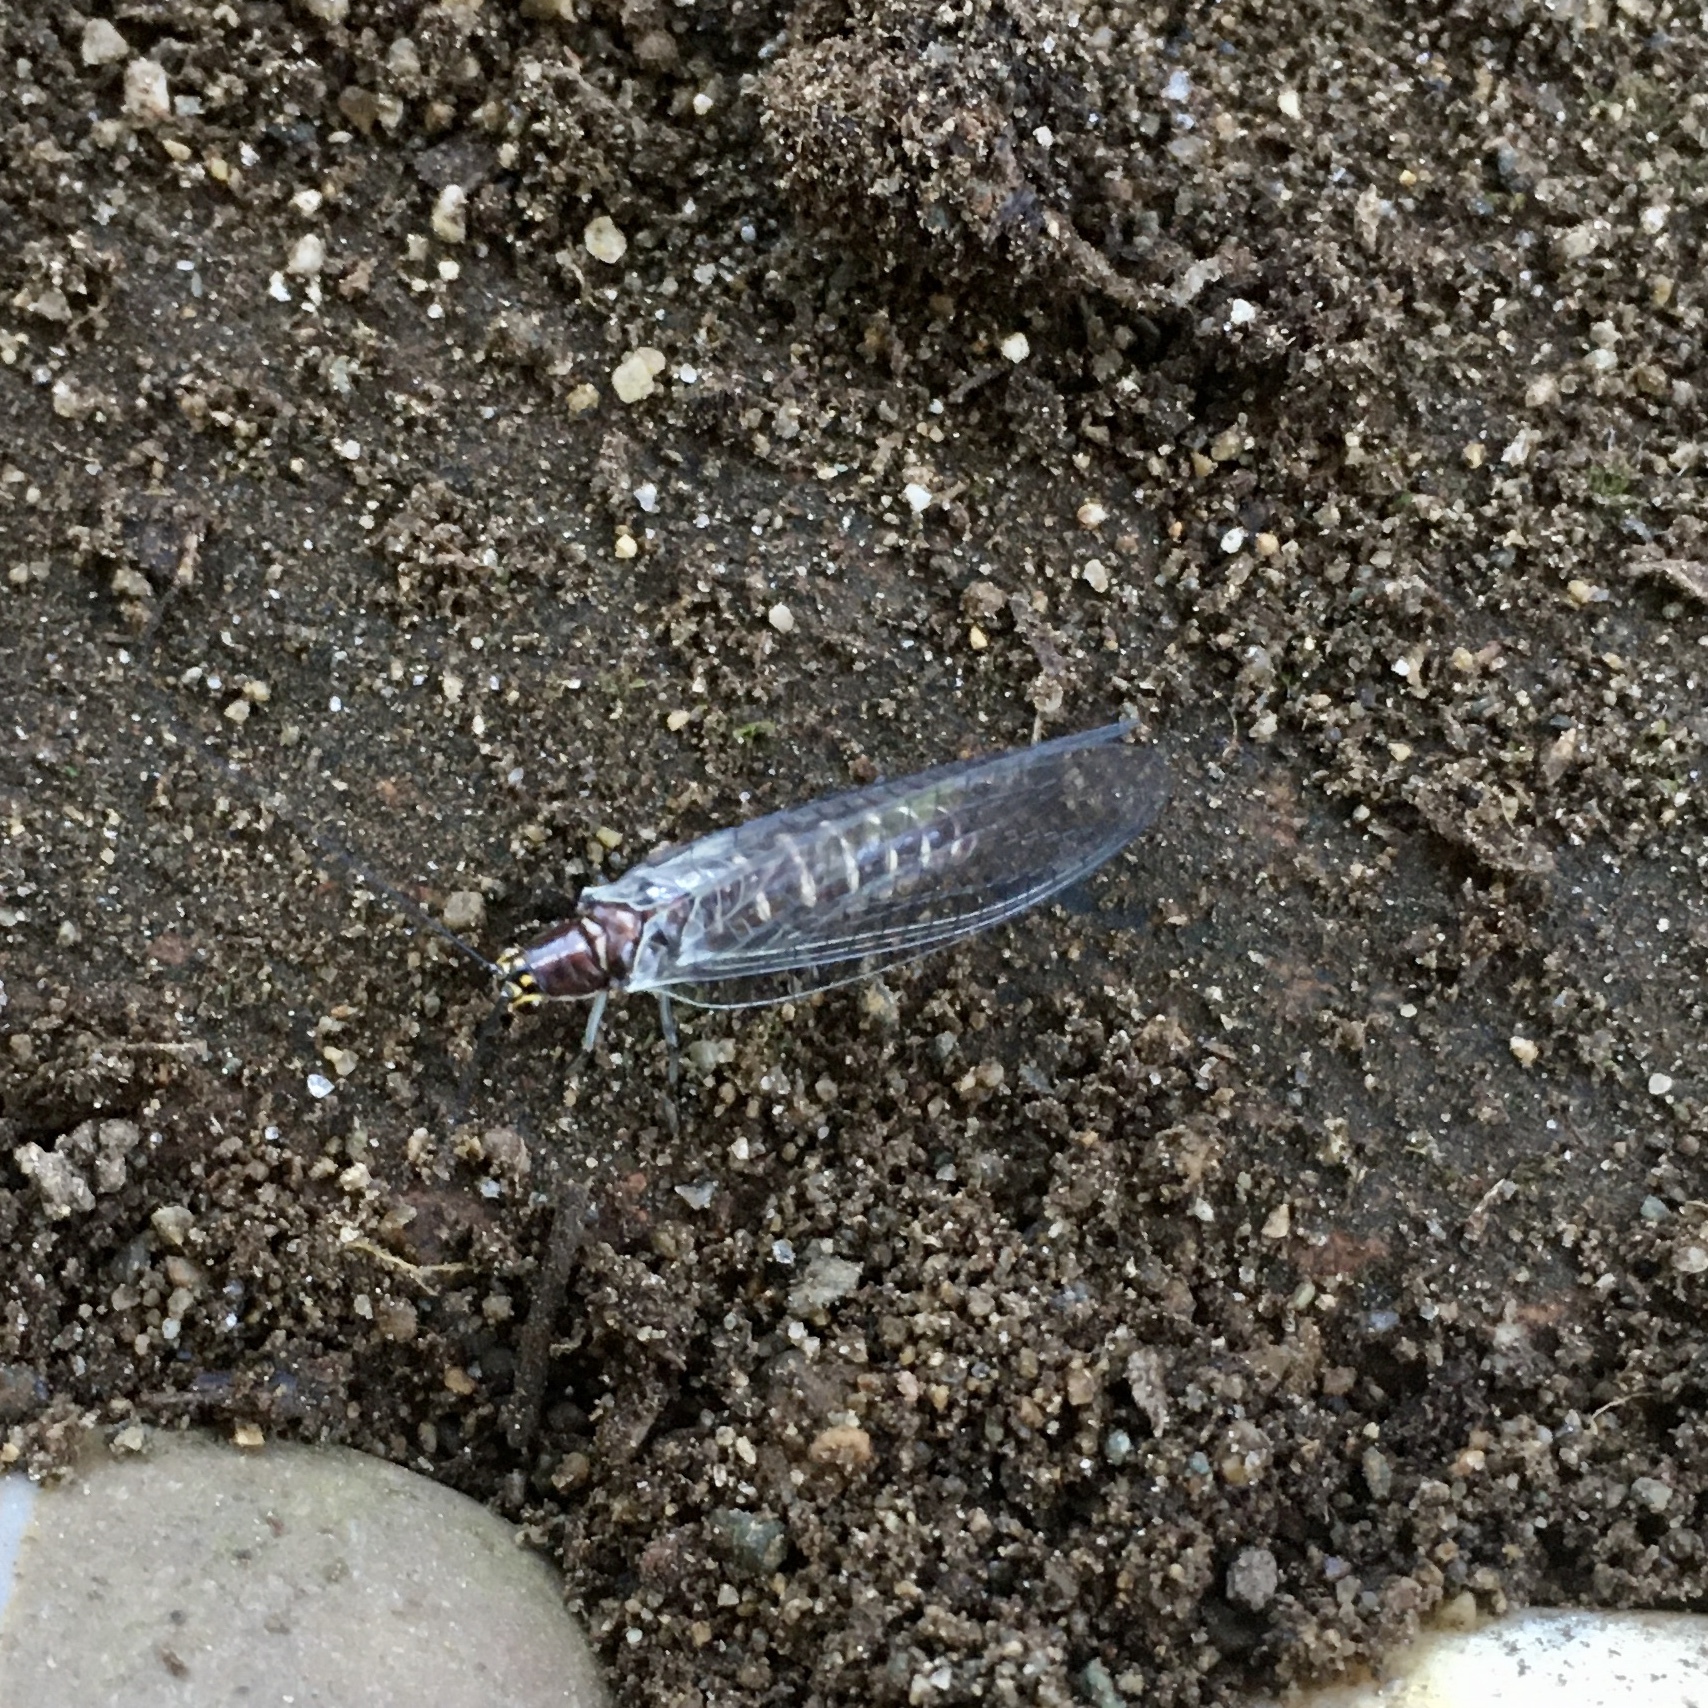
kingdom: Animalia
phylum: Arthropoda
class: Insecta
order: Neuroptera
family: Chrysopidae
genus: Nothochrysa
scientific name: Nothochrysa californica
